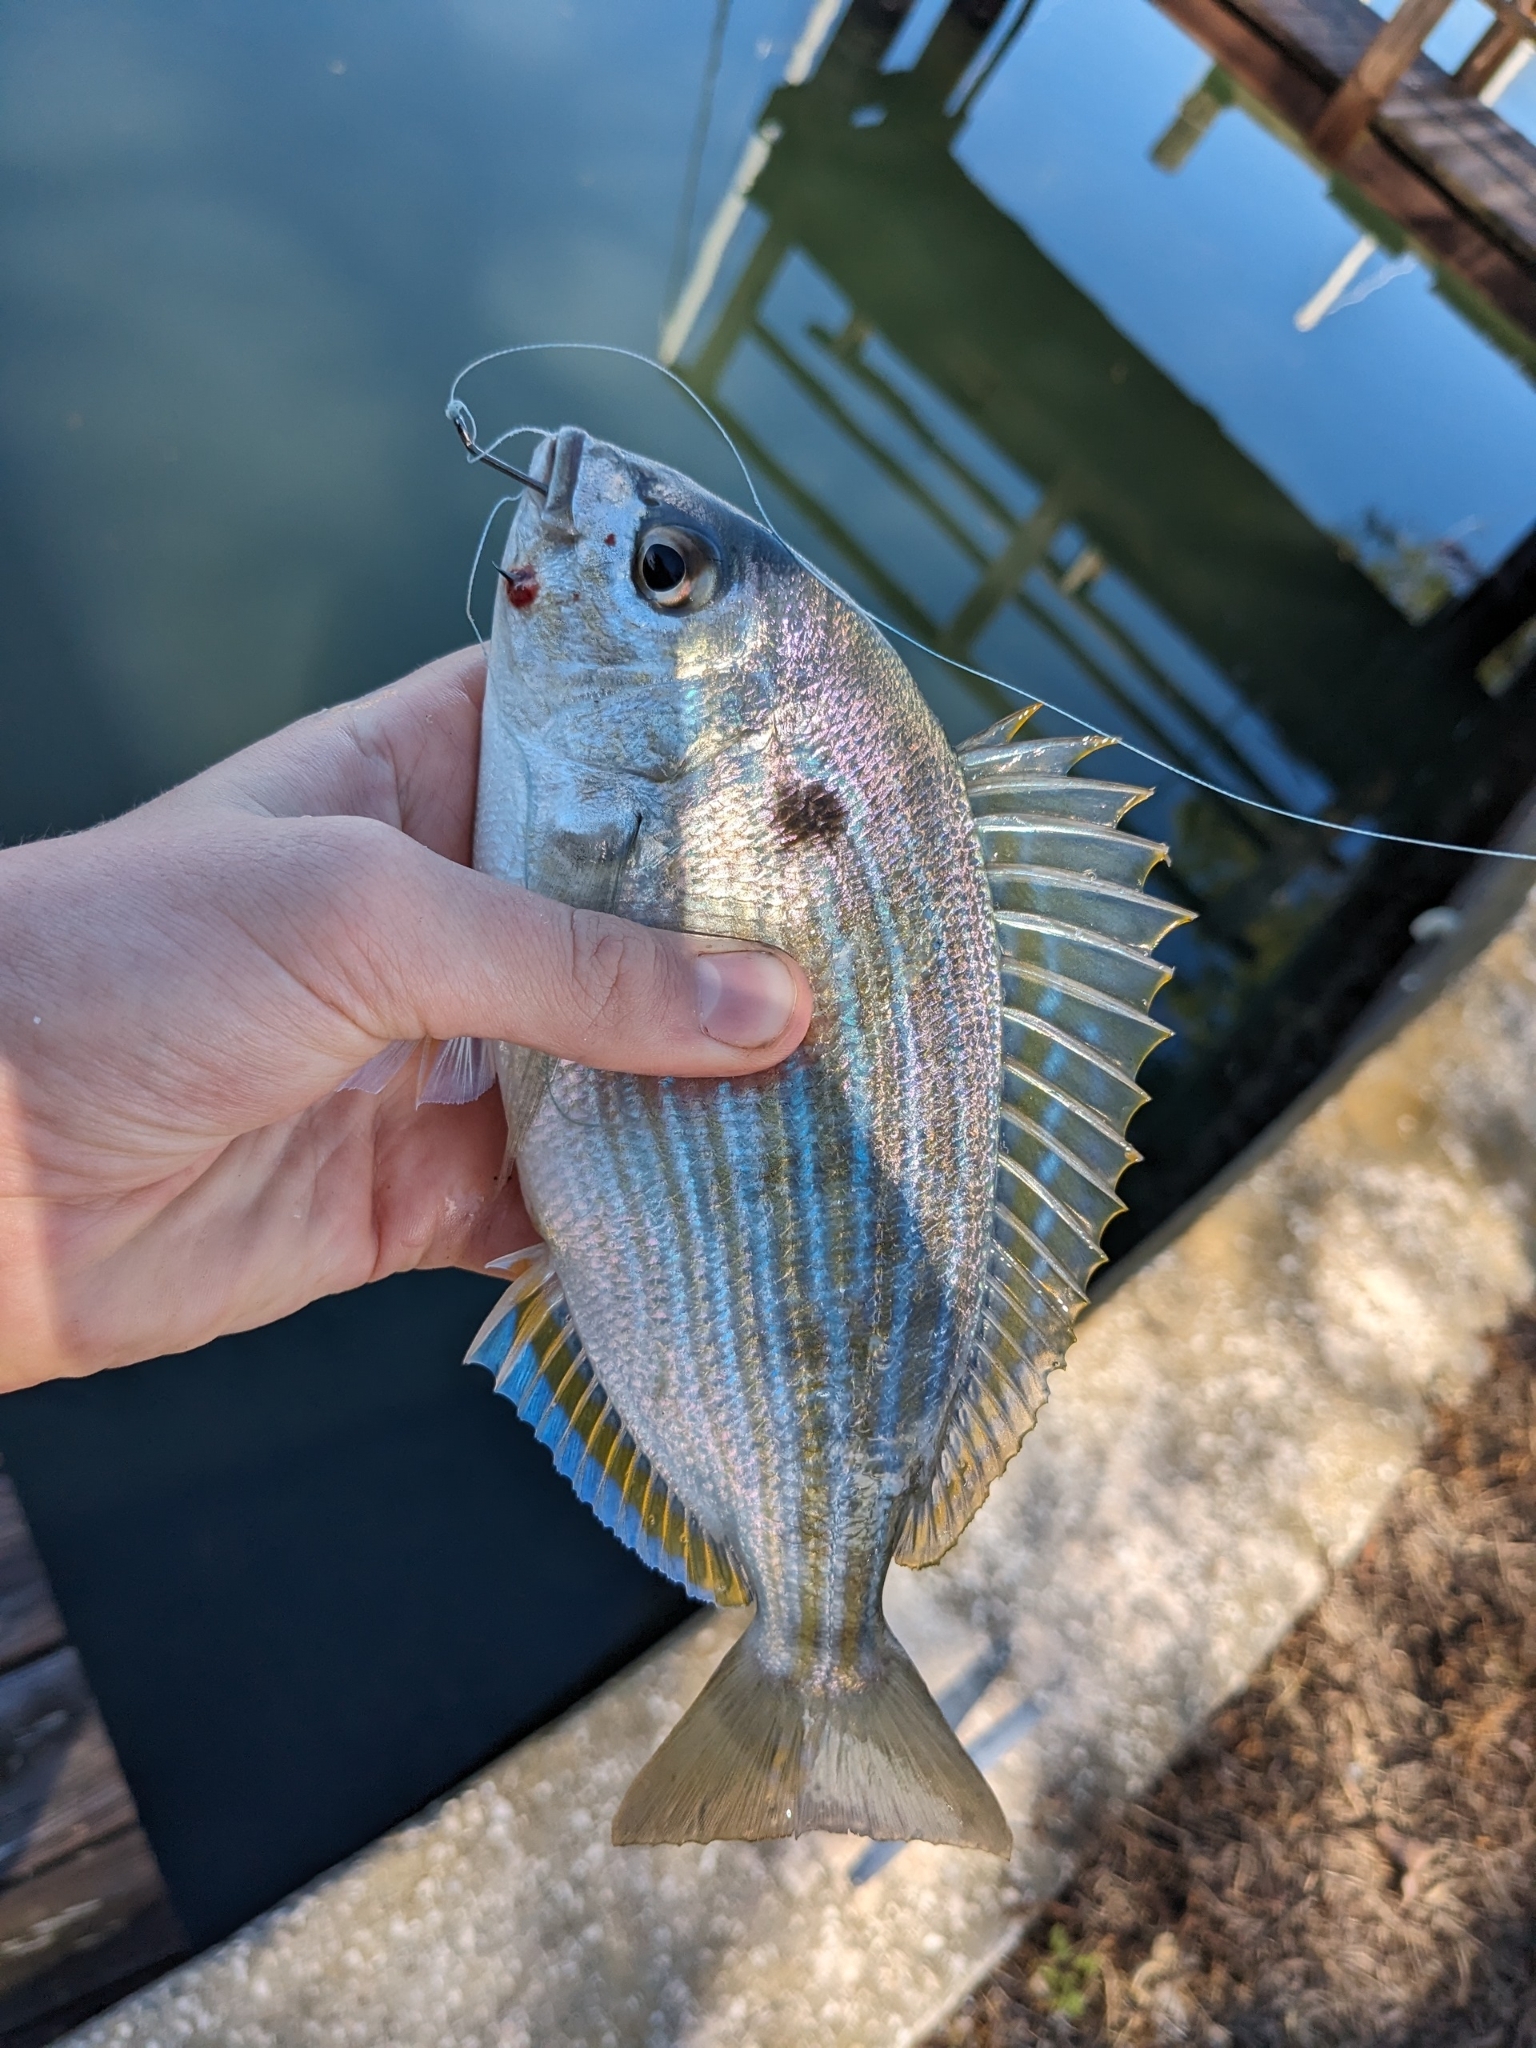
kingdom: Animalia
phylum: Chordata
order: Perciformes
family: Sparidae
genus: Lagodon
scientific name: Lagodon rhomboides
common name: Pinfish
